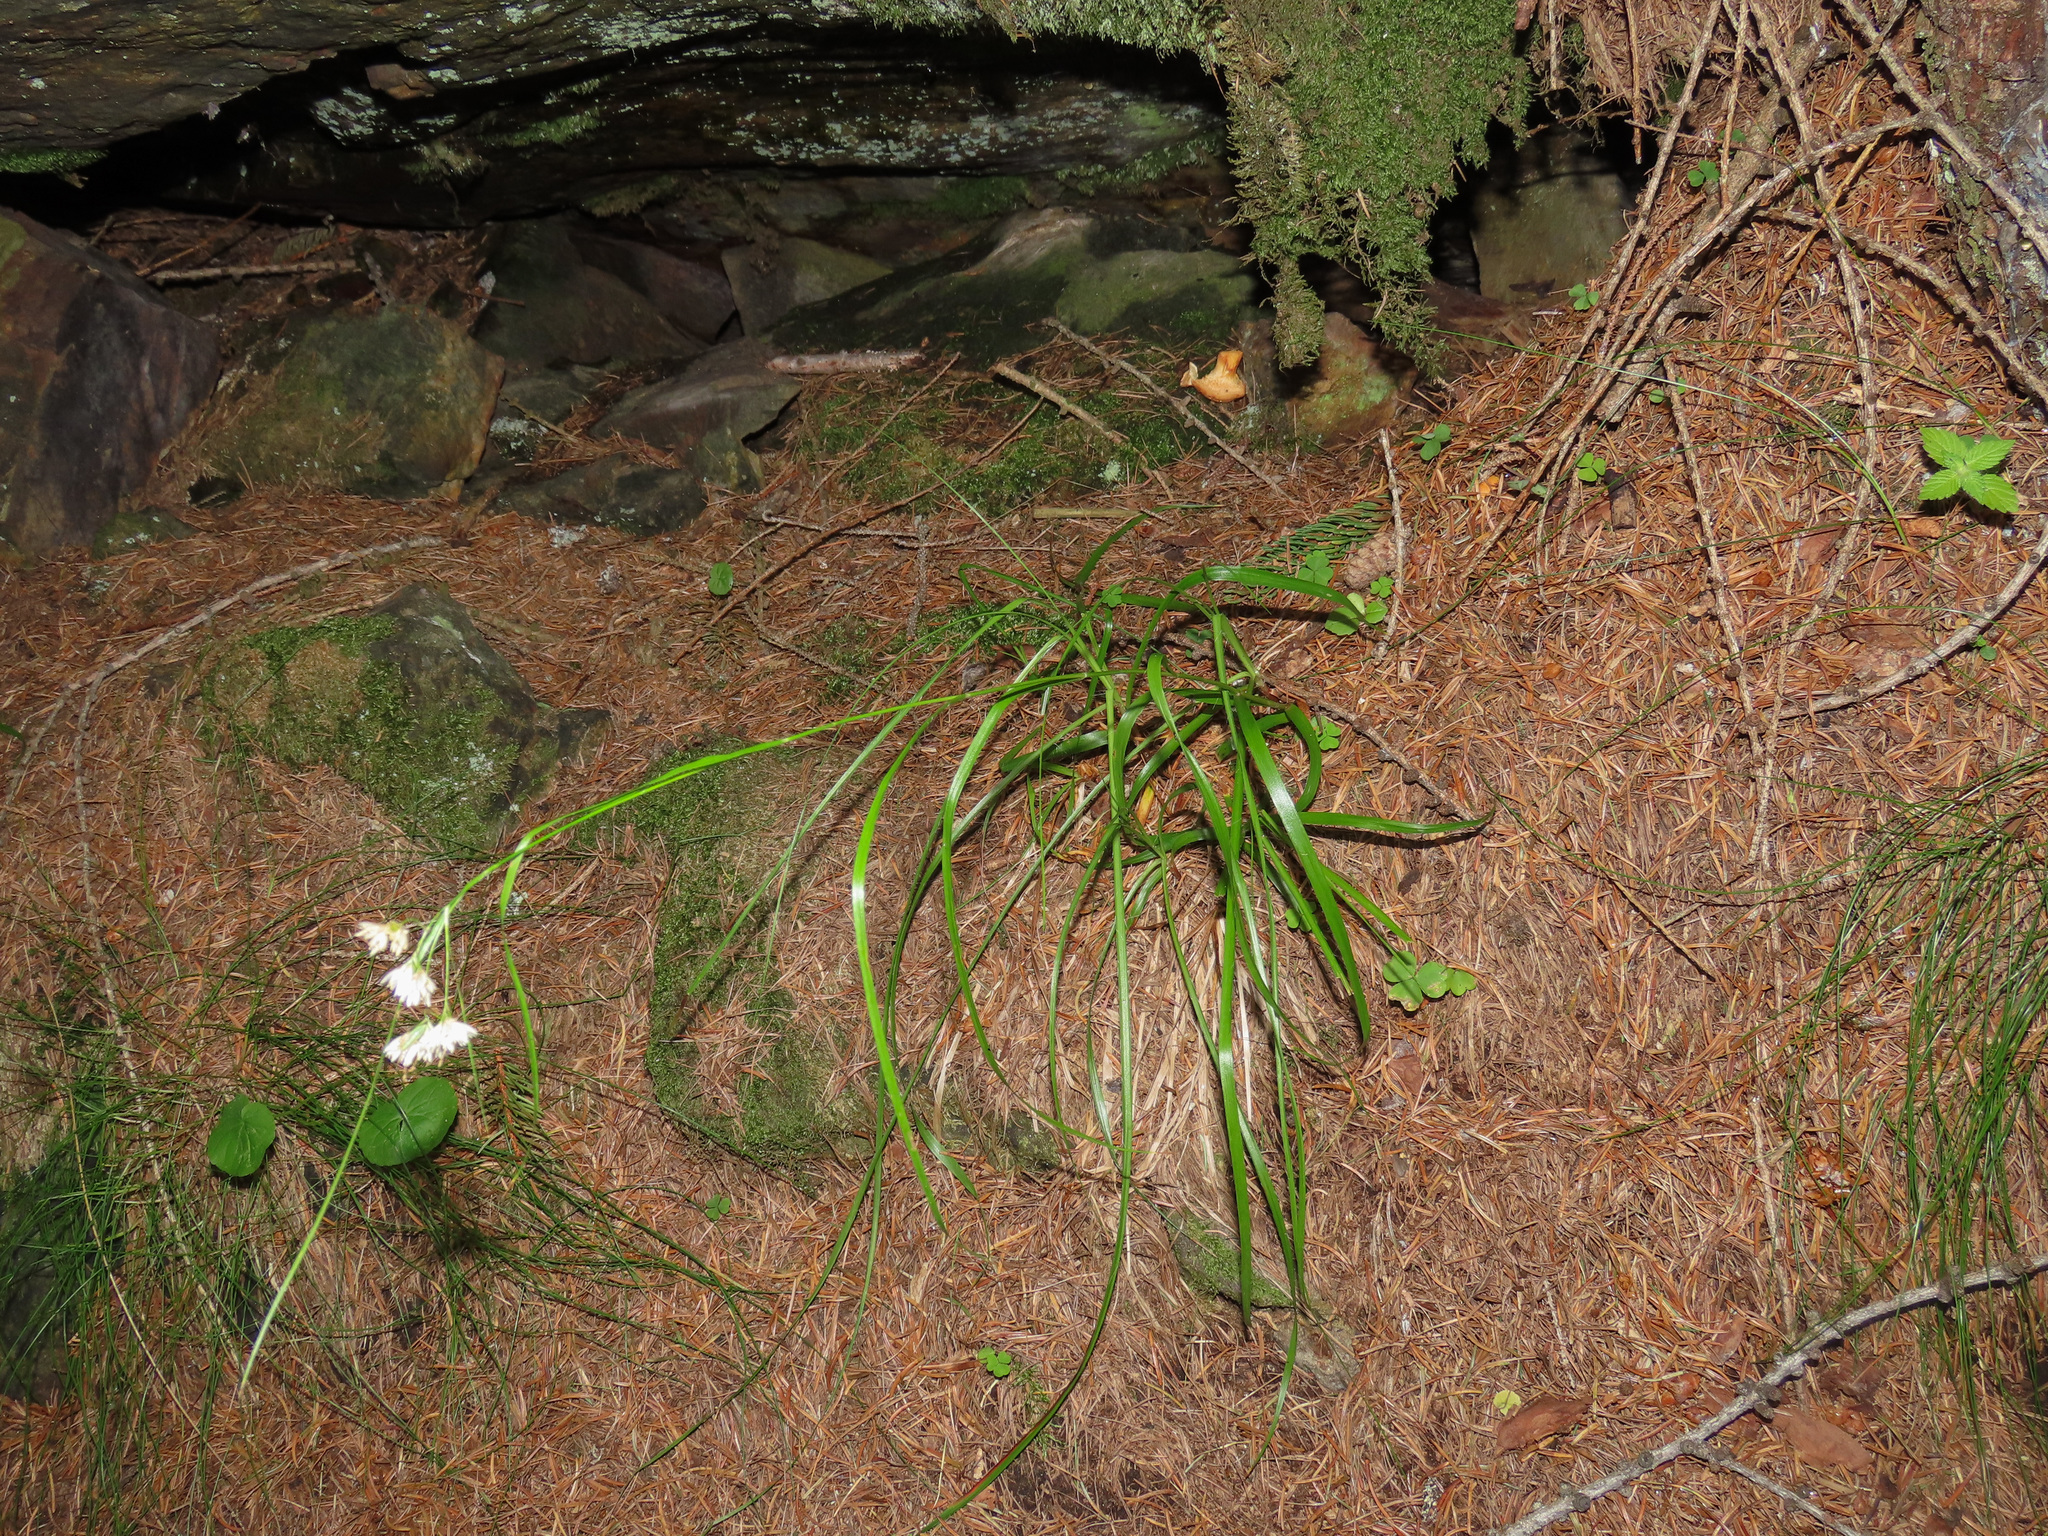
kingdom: Plantae
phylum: Tracheophyta
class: Liliopsida
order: Poales
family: Juncaceae
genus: Luzula
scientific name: Luzula nivea
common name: Snow-white wood-rush
